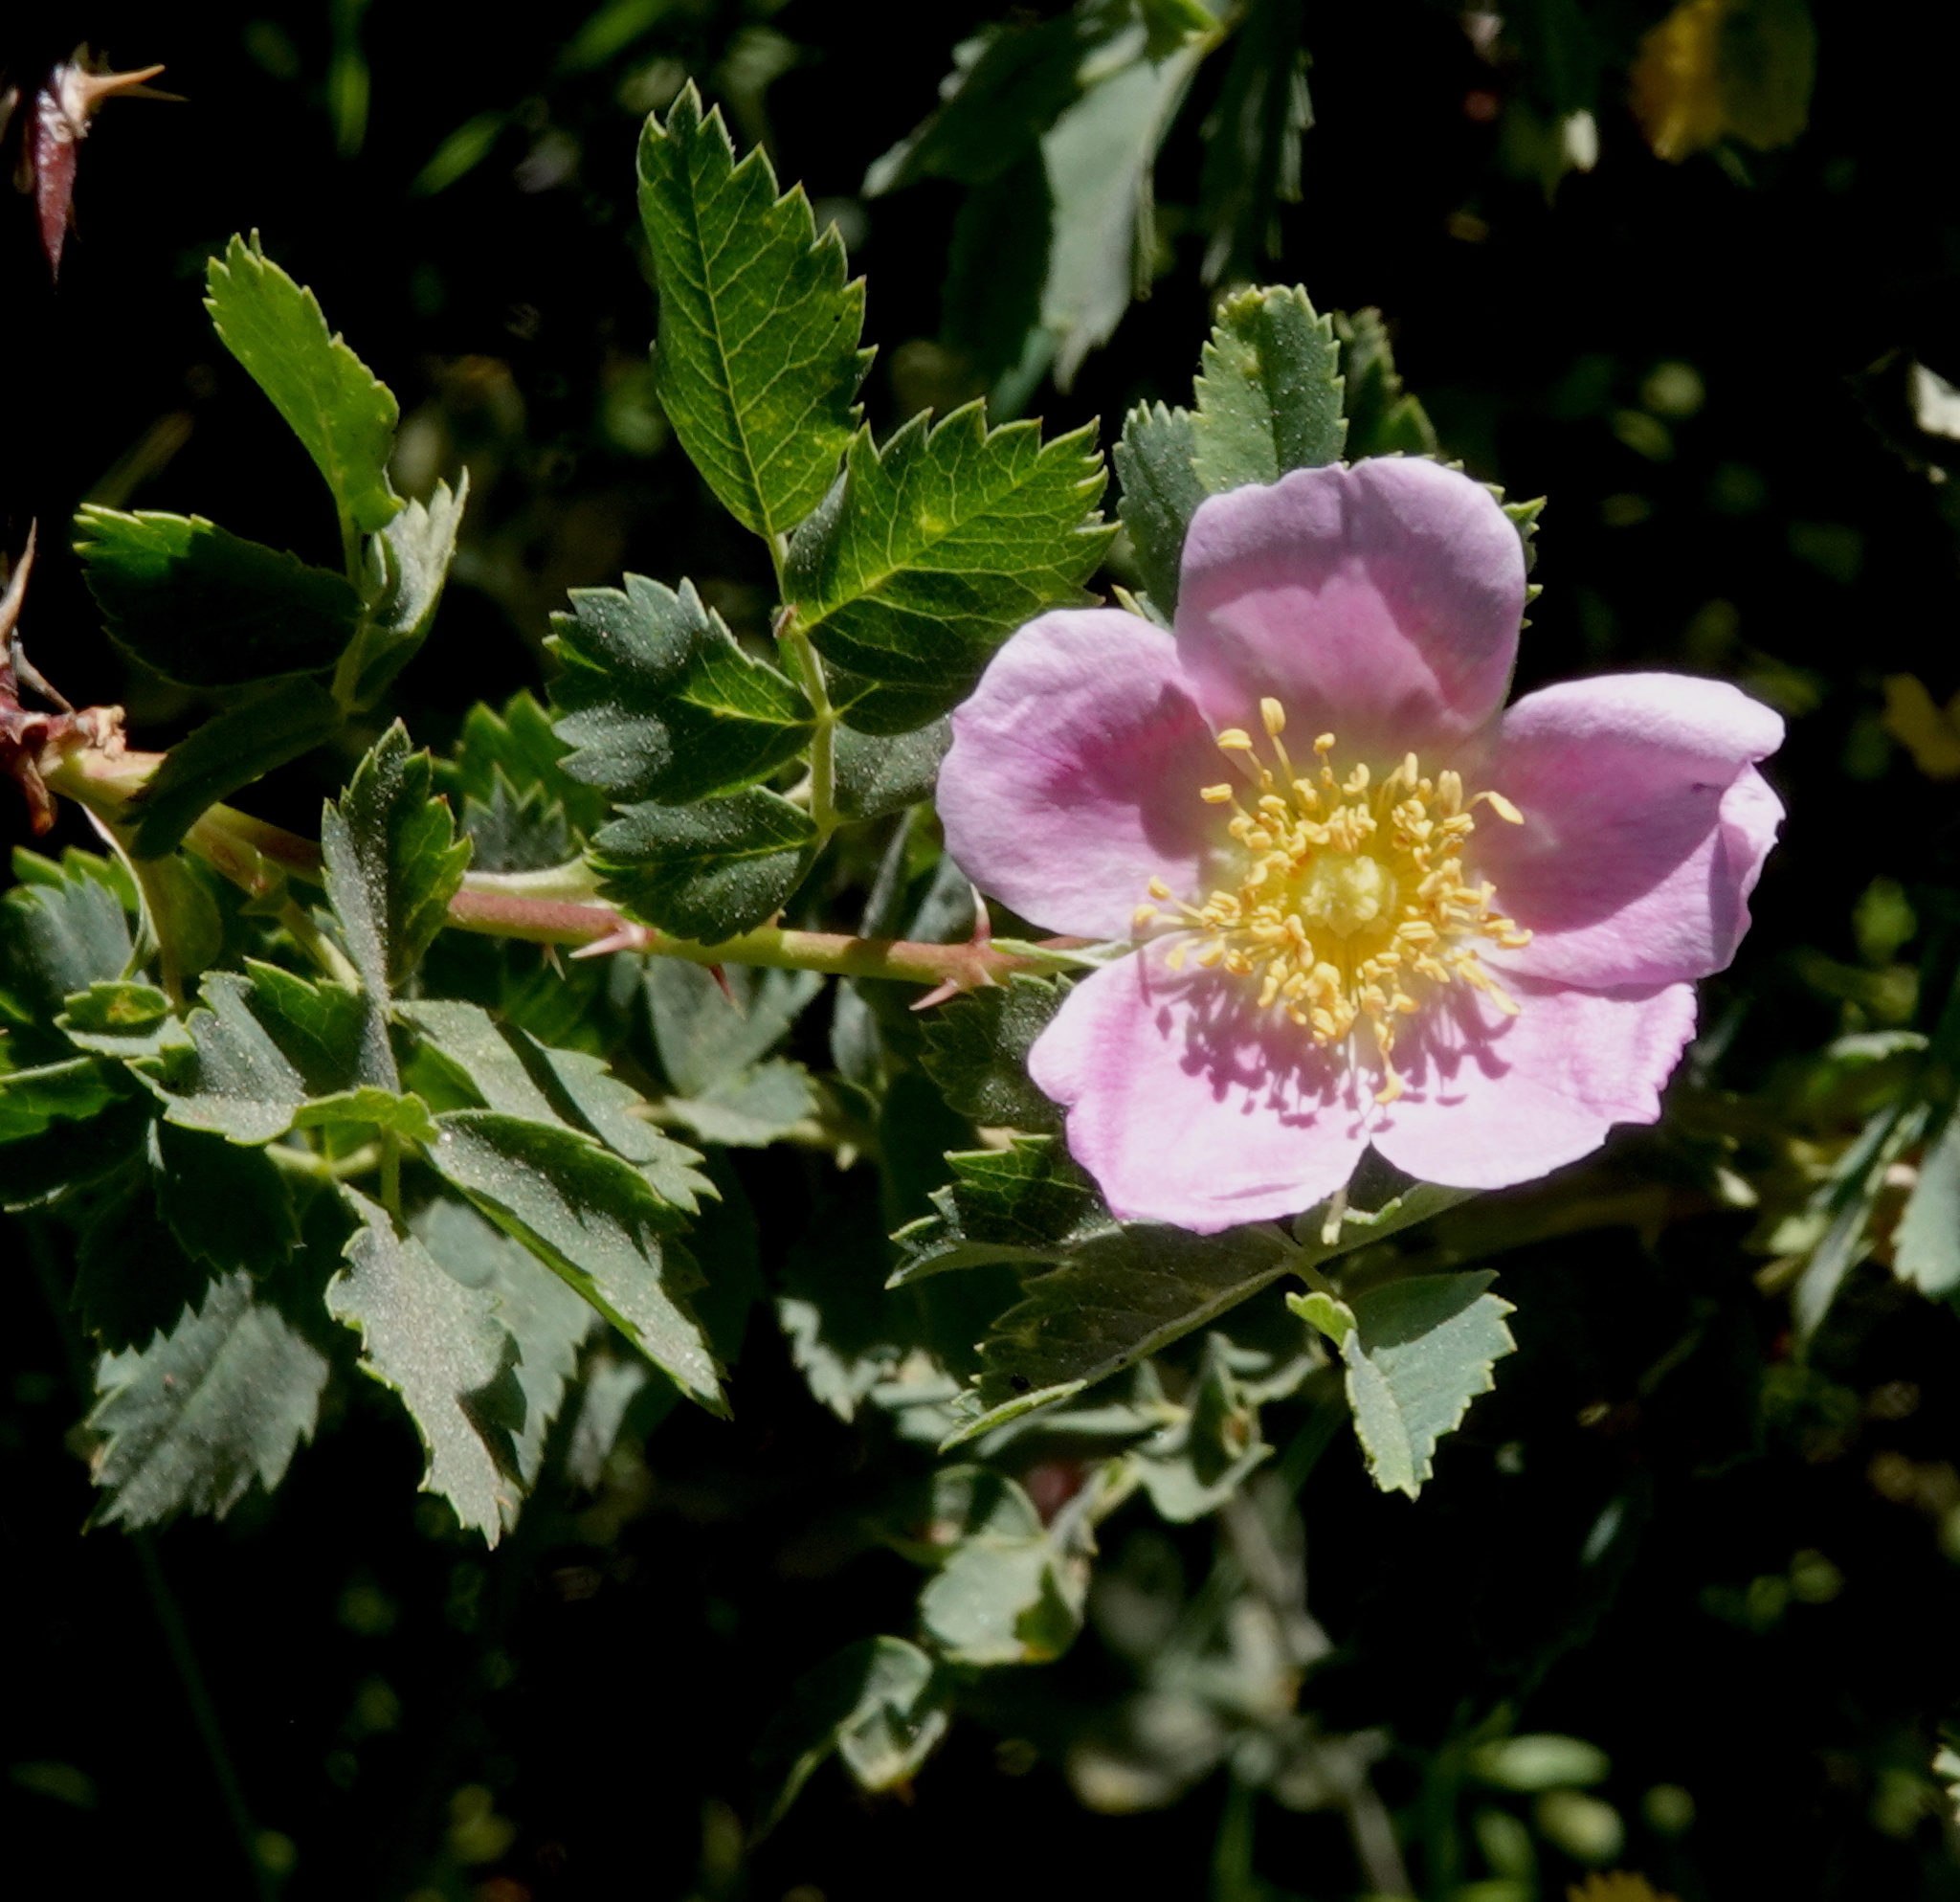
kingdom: Plantae
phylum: Tracheophyta
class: Magnoliopsida
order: Rosales
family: Rosaceae
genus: Rosa
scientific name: Rosa californica
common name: California rose
